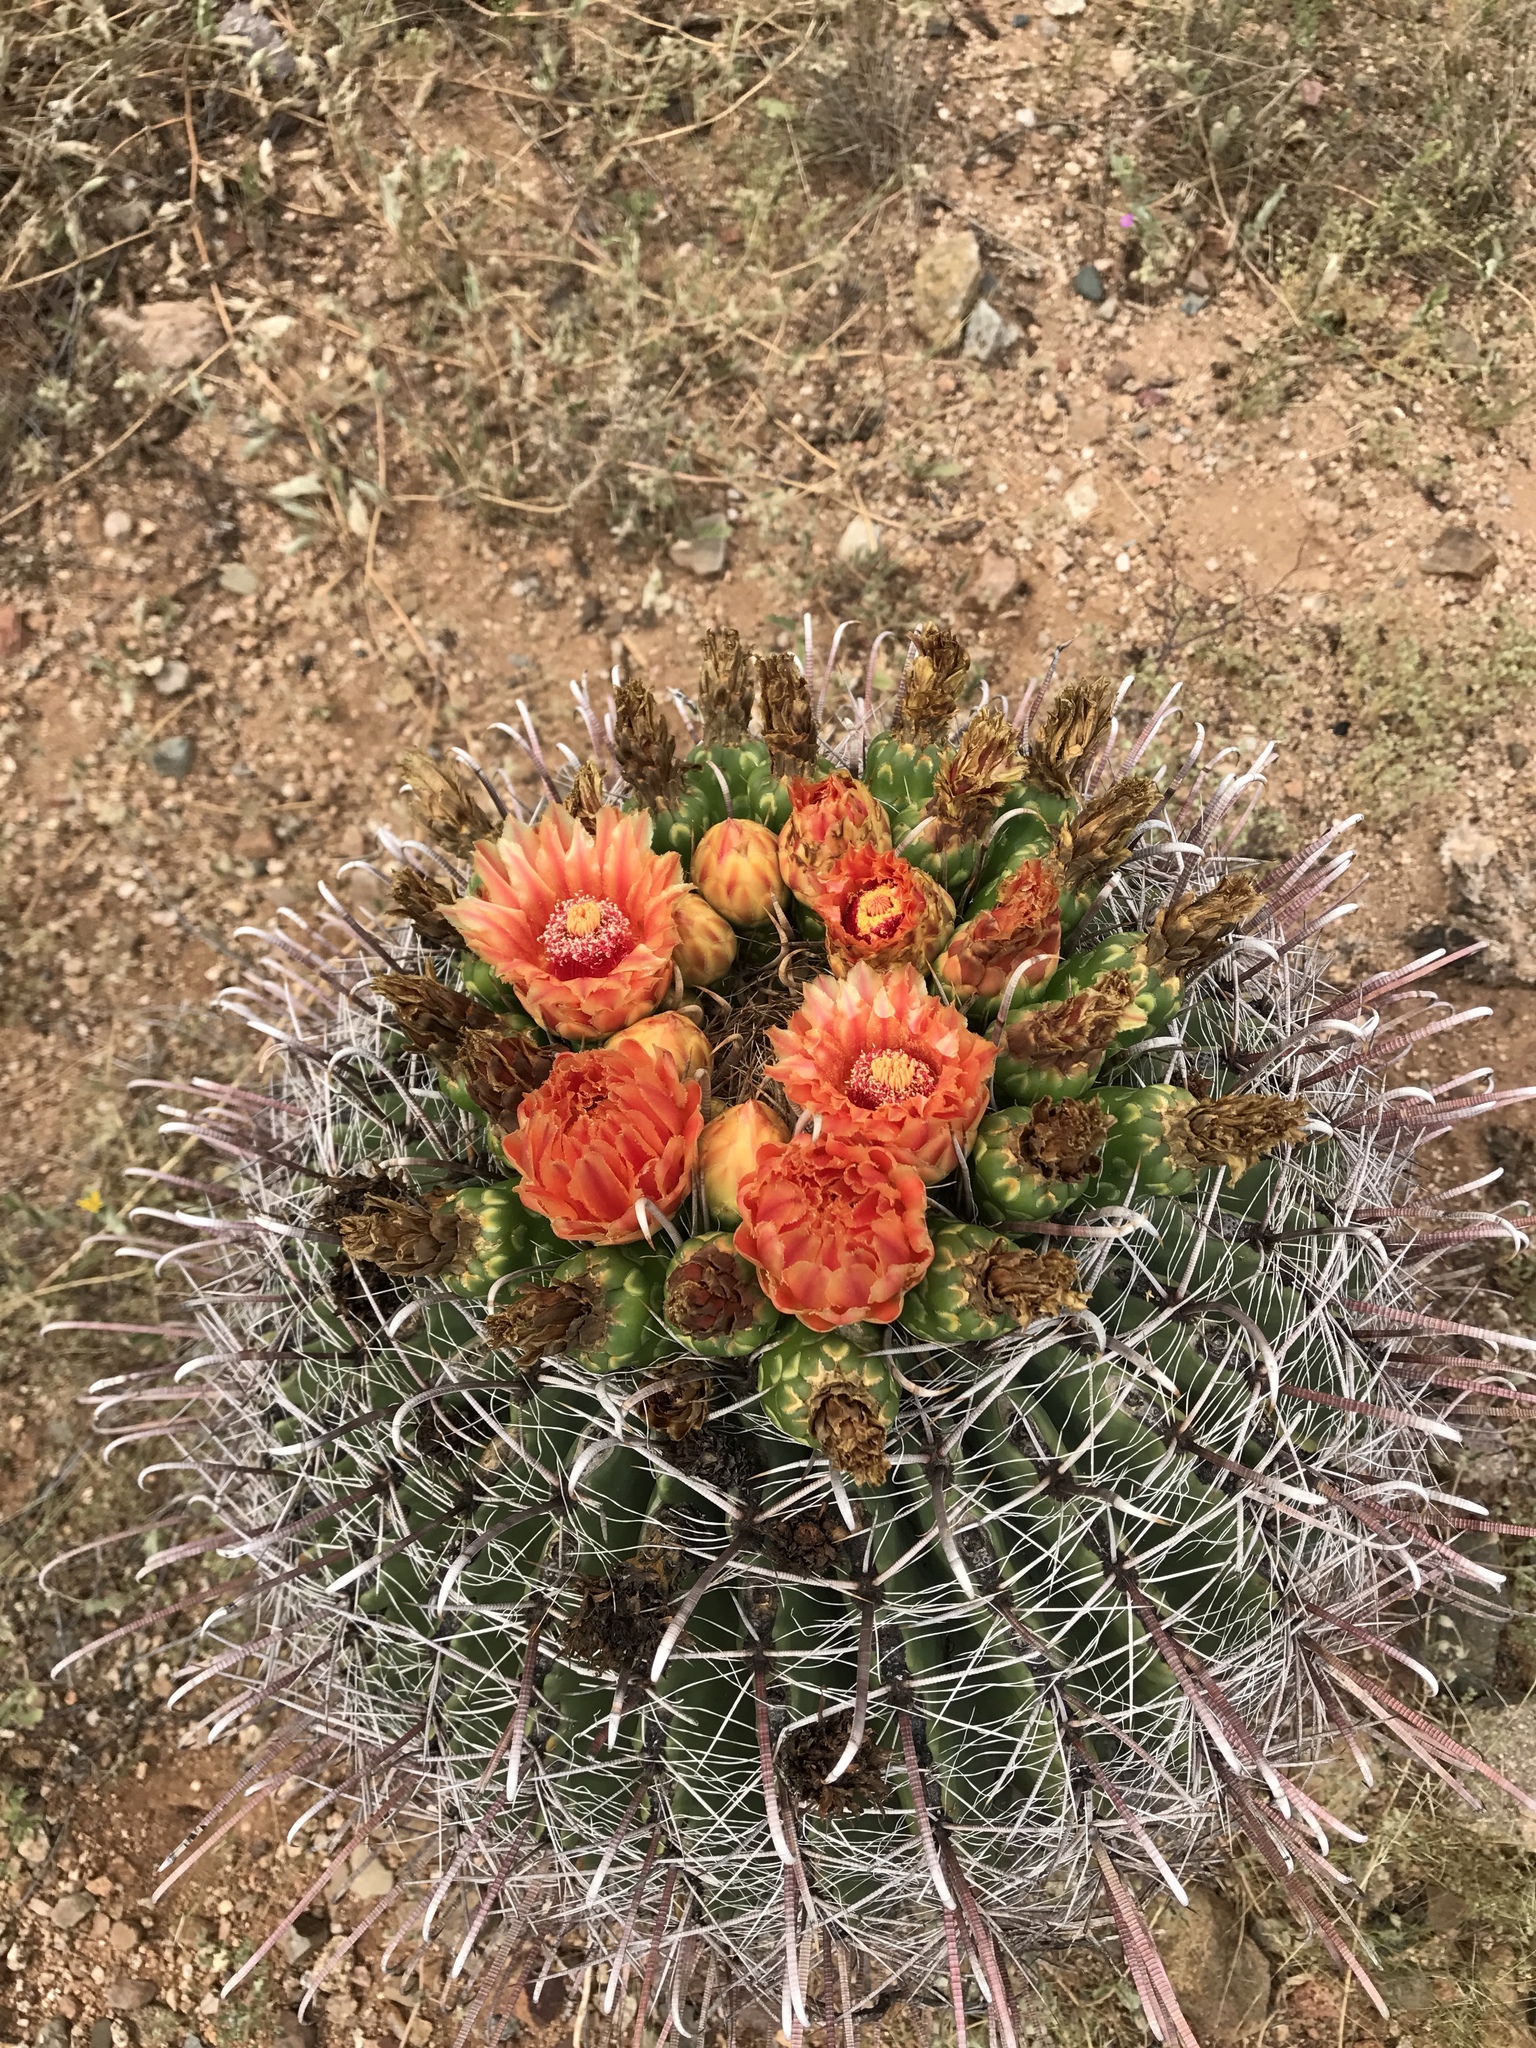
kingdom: Plantae
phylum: Tracheophyta
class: Magnoliopsida
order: Caryophyllales
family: Cactaceae
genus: Ferocactus
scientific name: Ferocactus wislizeni
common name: Candy barrel cactus
